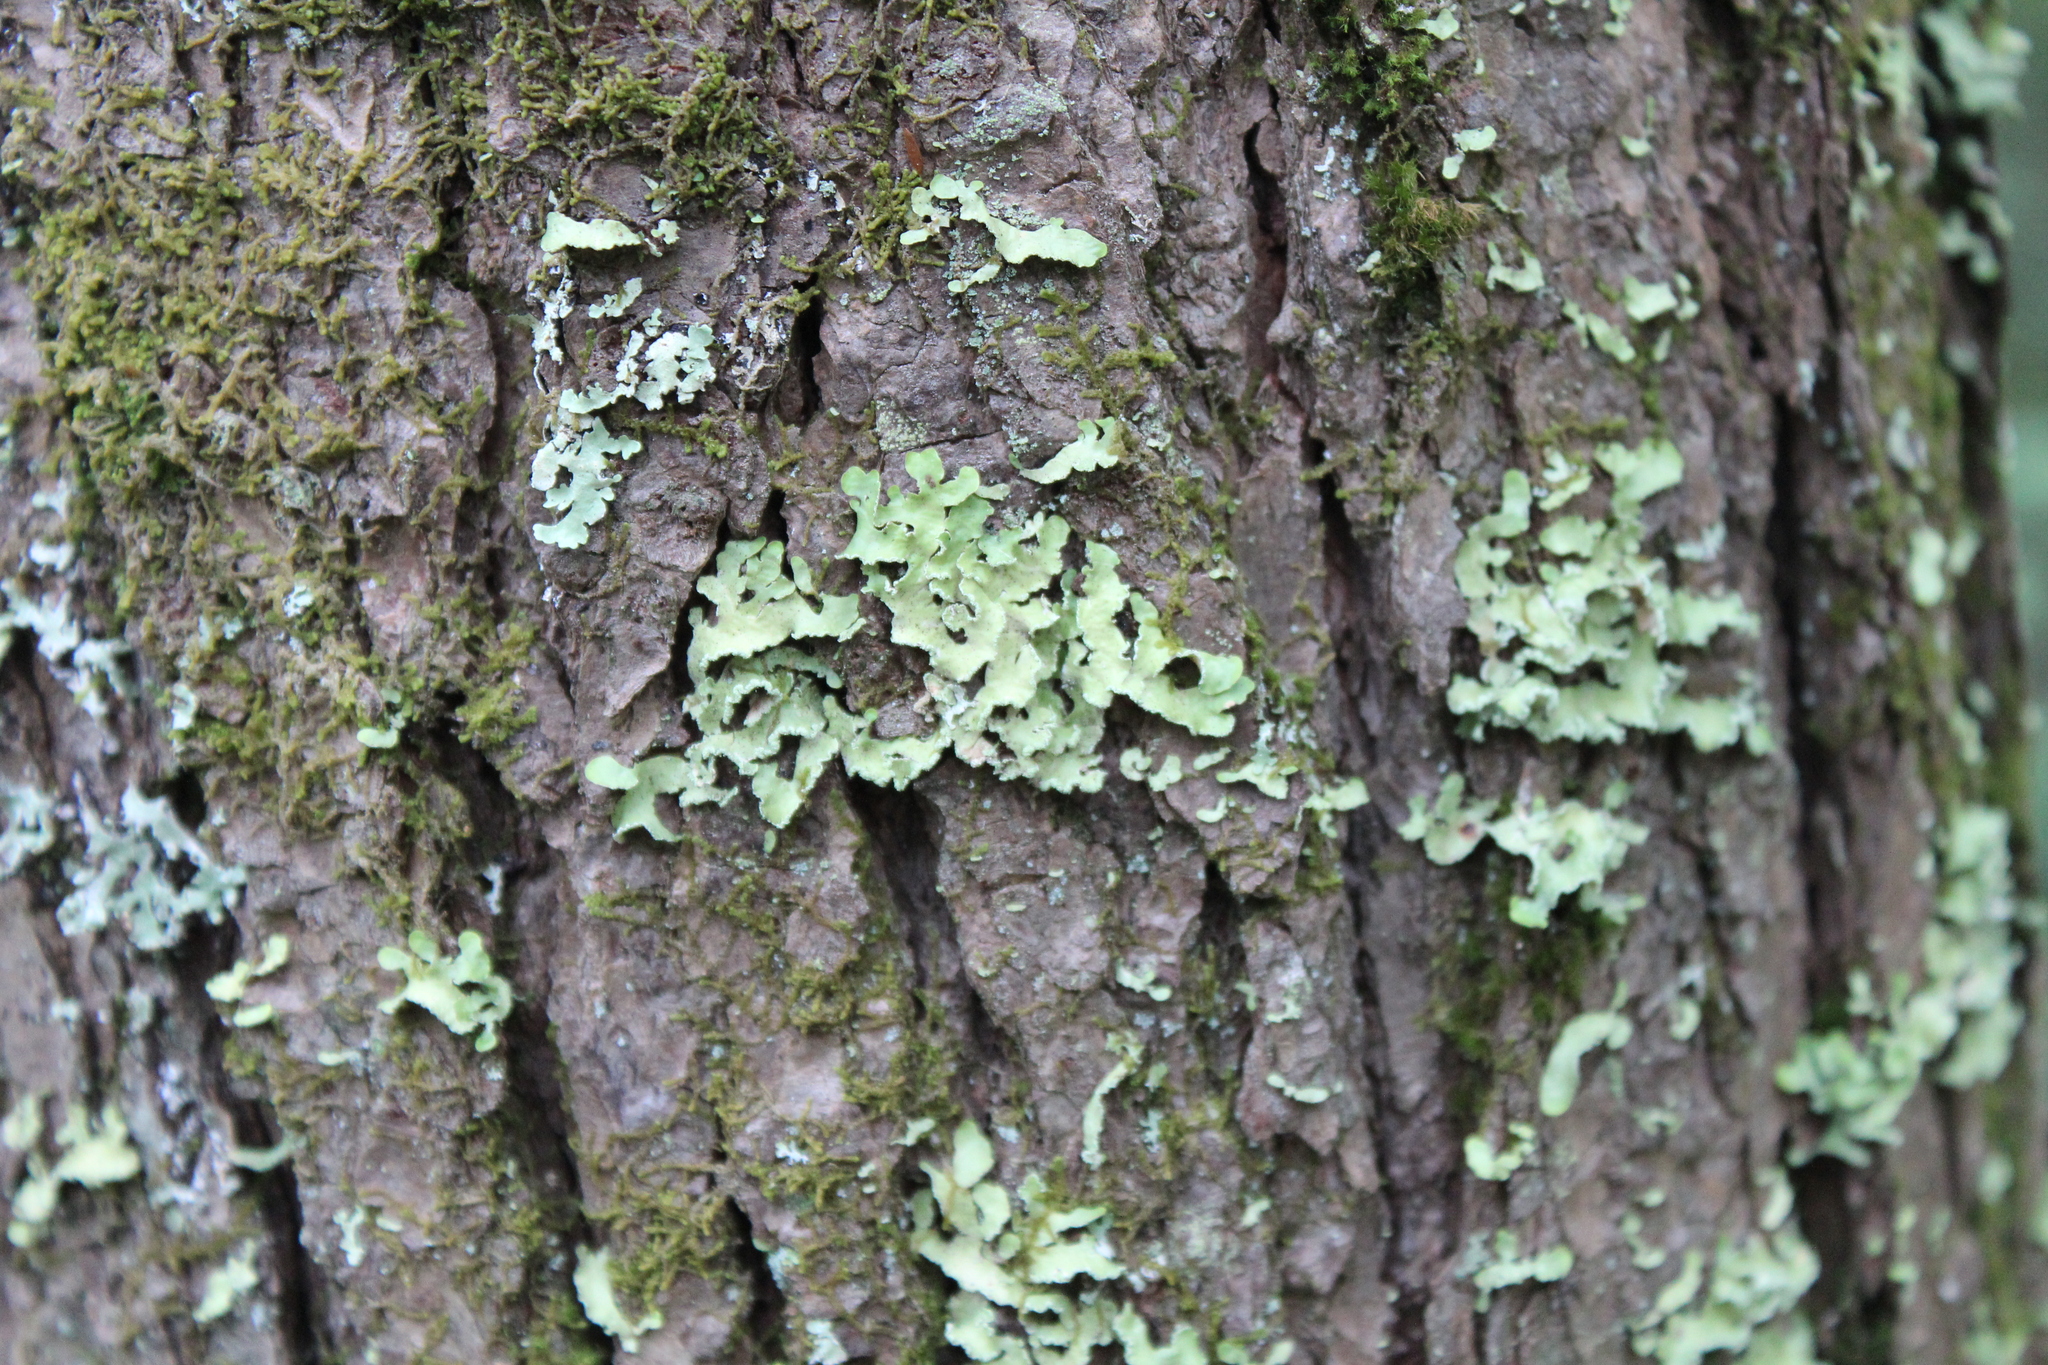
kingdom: Fungi
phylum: Ascomycota
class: Lecanoromycetes
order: Lecanorales
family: Parmeliaceae
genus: Usnocetraria
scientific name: Usnocetraria oakesiana
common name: Yellow ribbon lichen
